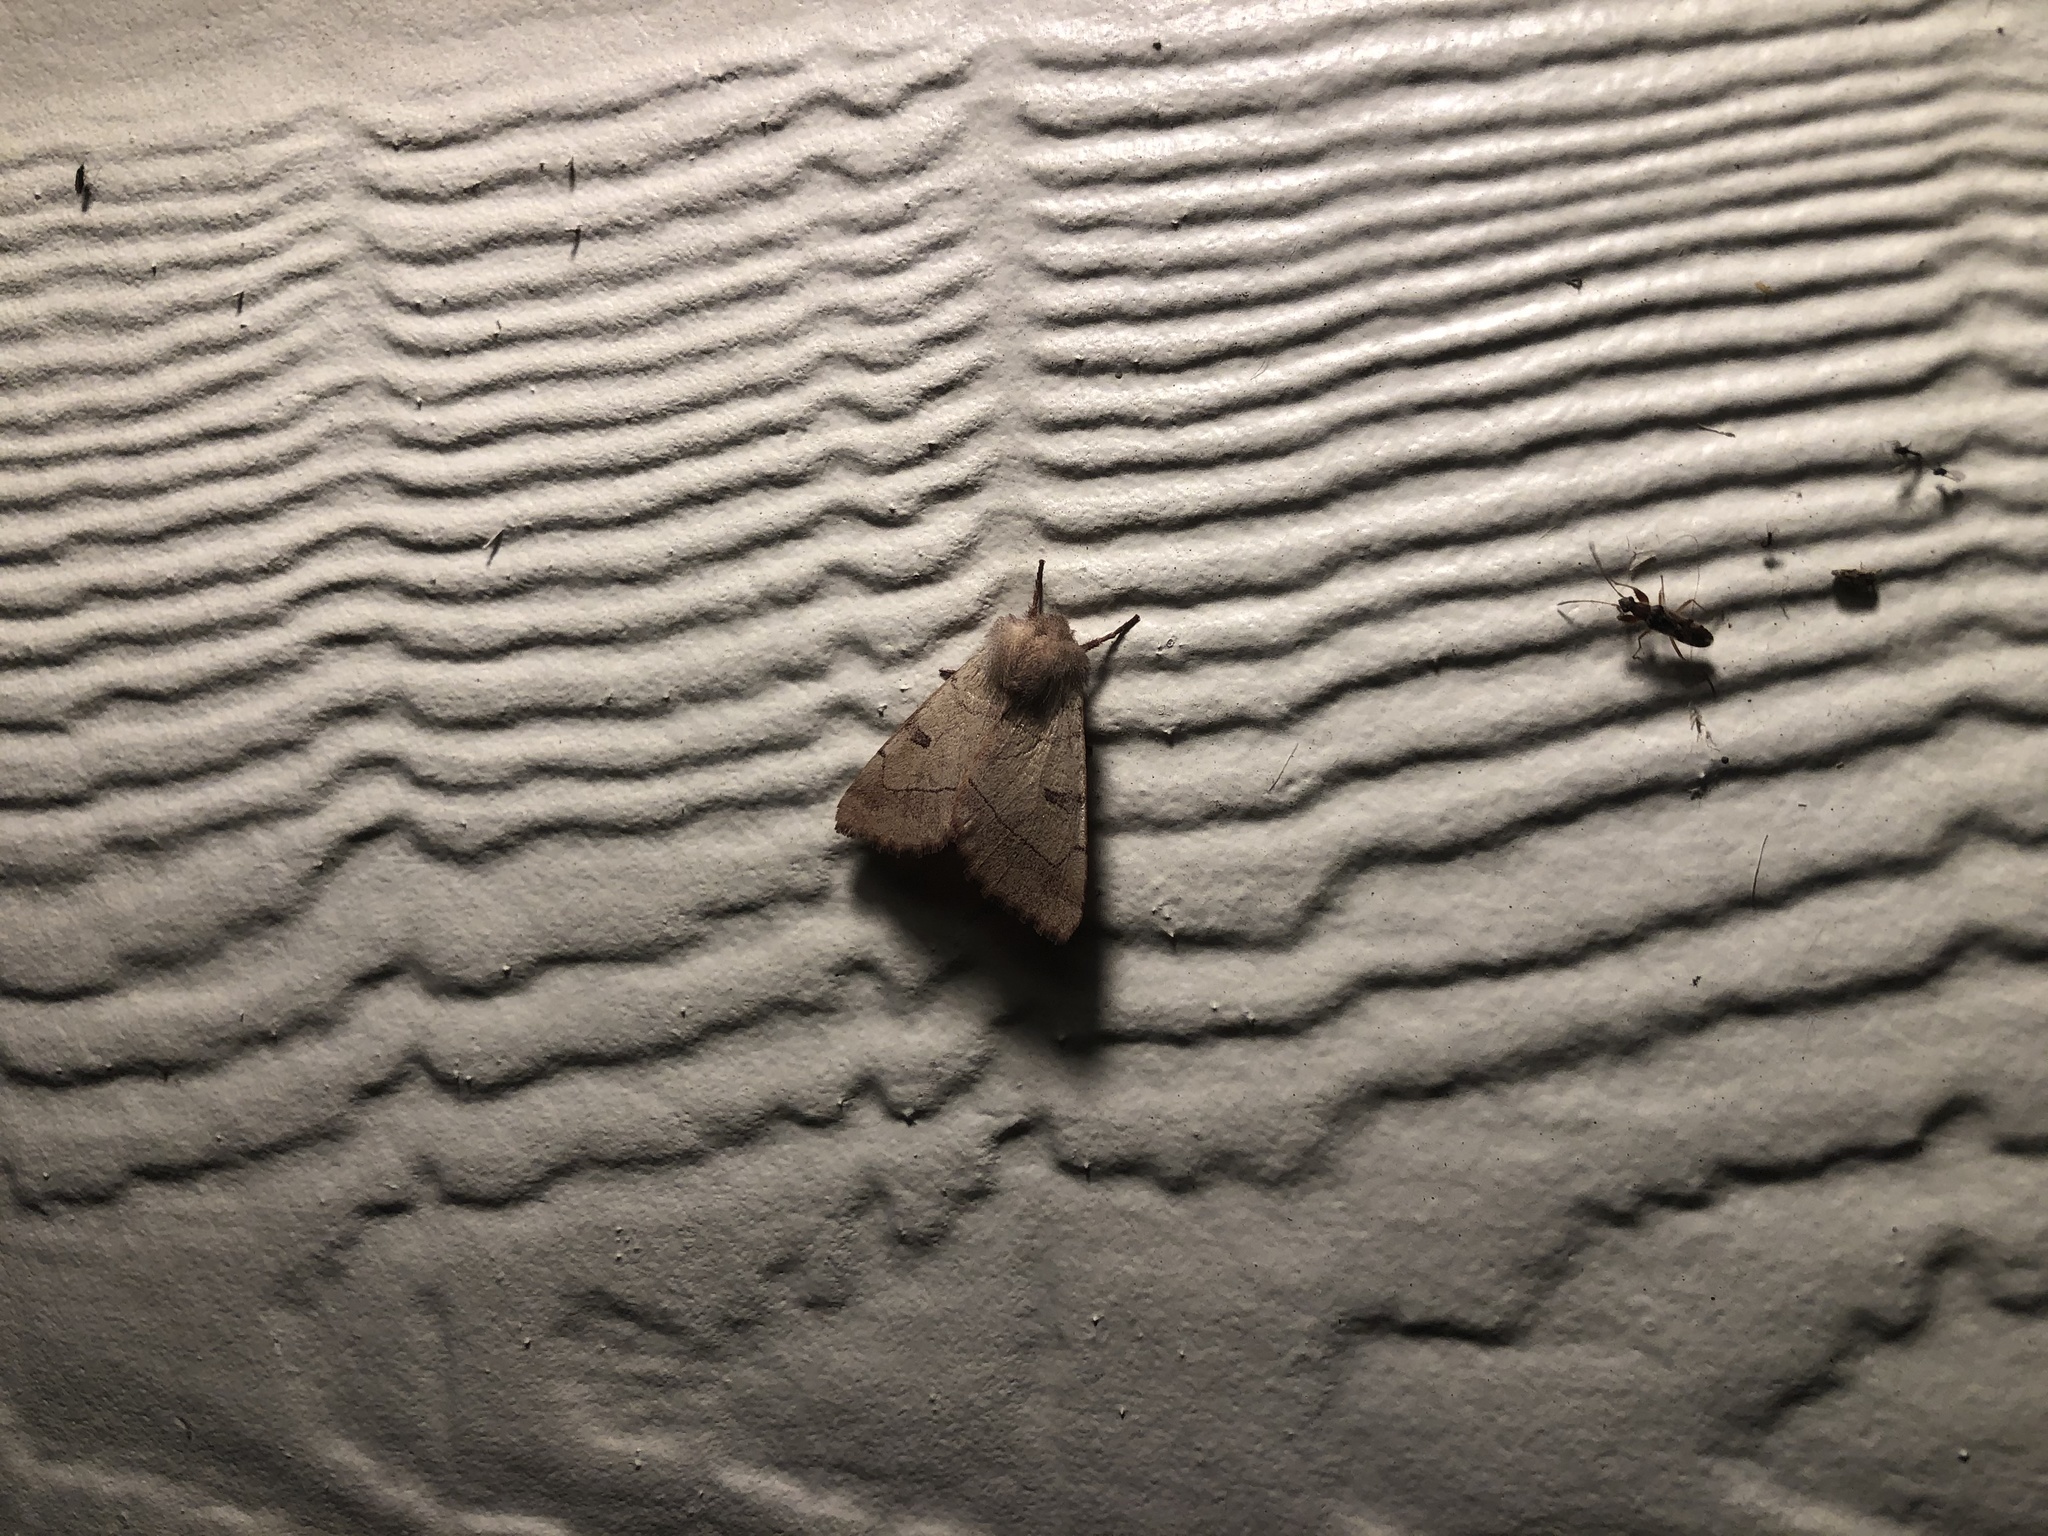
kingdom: Animalia
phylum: Arthropoda
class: Insecta
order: Lepidoptera
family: Noctuidae
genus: Choephora
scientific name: Choephora fungorum
